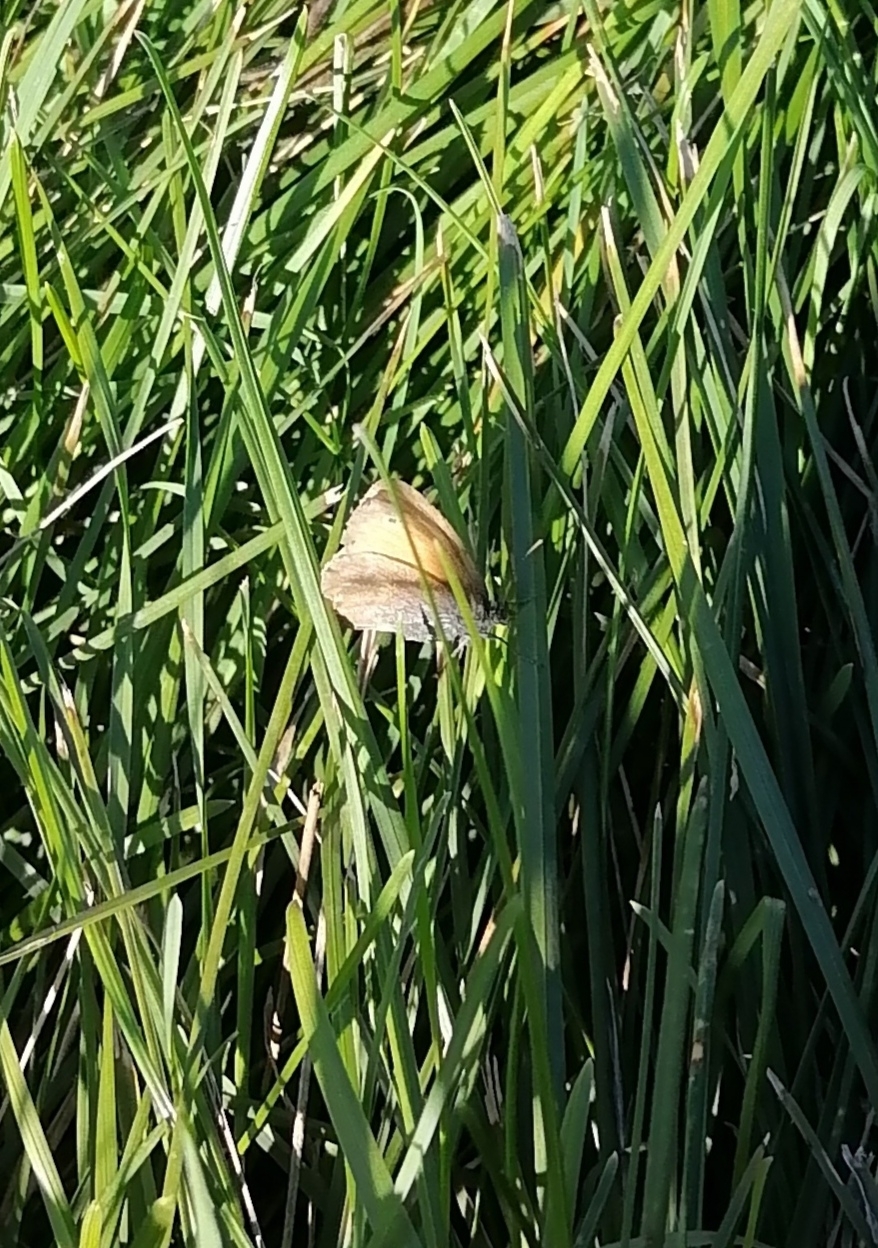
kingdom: Animalia
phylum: Arthropoda
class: Insecta
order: Lepidoptera
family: Nymphalidae
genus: Coenonympha
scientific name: Coenonympha pamphilus
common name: Small heath
